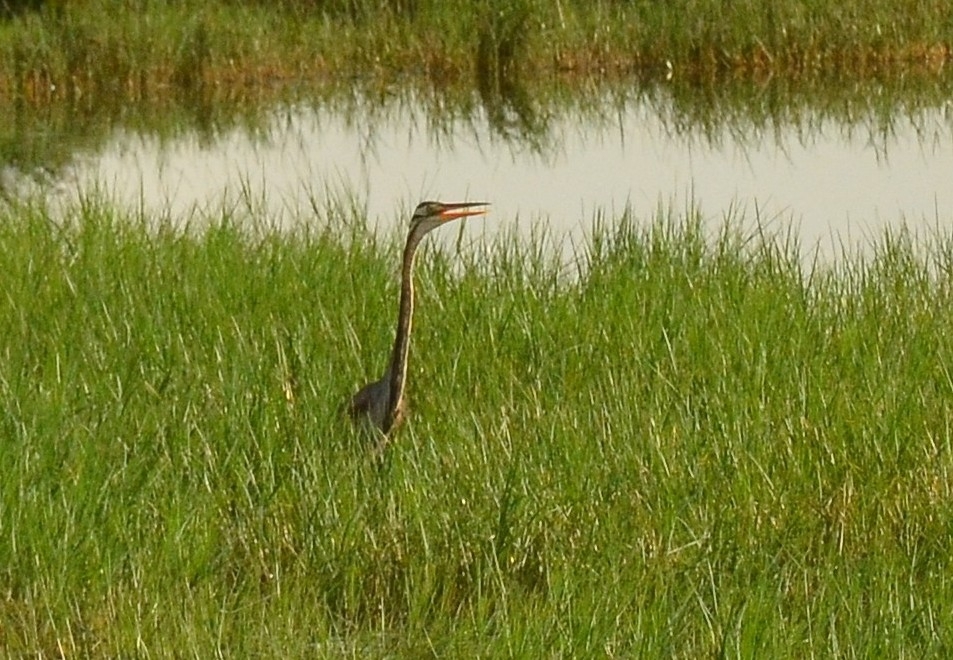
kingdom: Animalia
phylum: Chordata
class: Aves
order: Pelecaniformes
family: Ardeidae
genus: Ardea
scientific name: Ardea purpurea
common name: Purple heron
